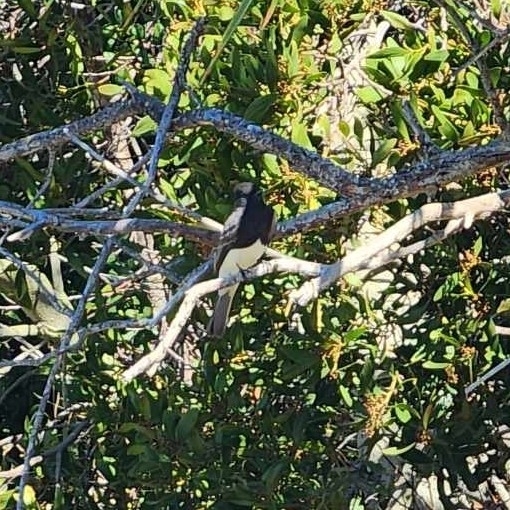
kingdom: Animalia
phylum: Chordata
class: Aves
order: Passeriformes
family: Tyrannidae
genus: Sayornis
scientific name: Sayornis nigricans
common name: Black phoebe
